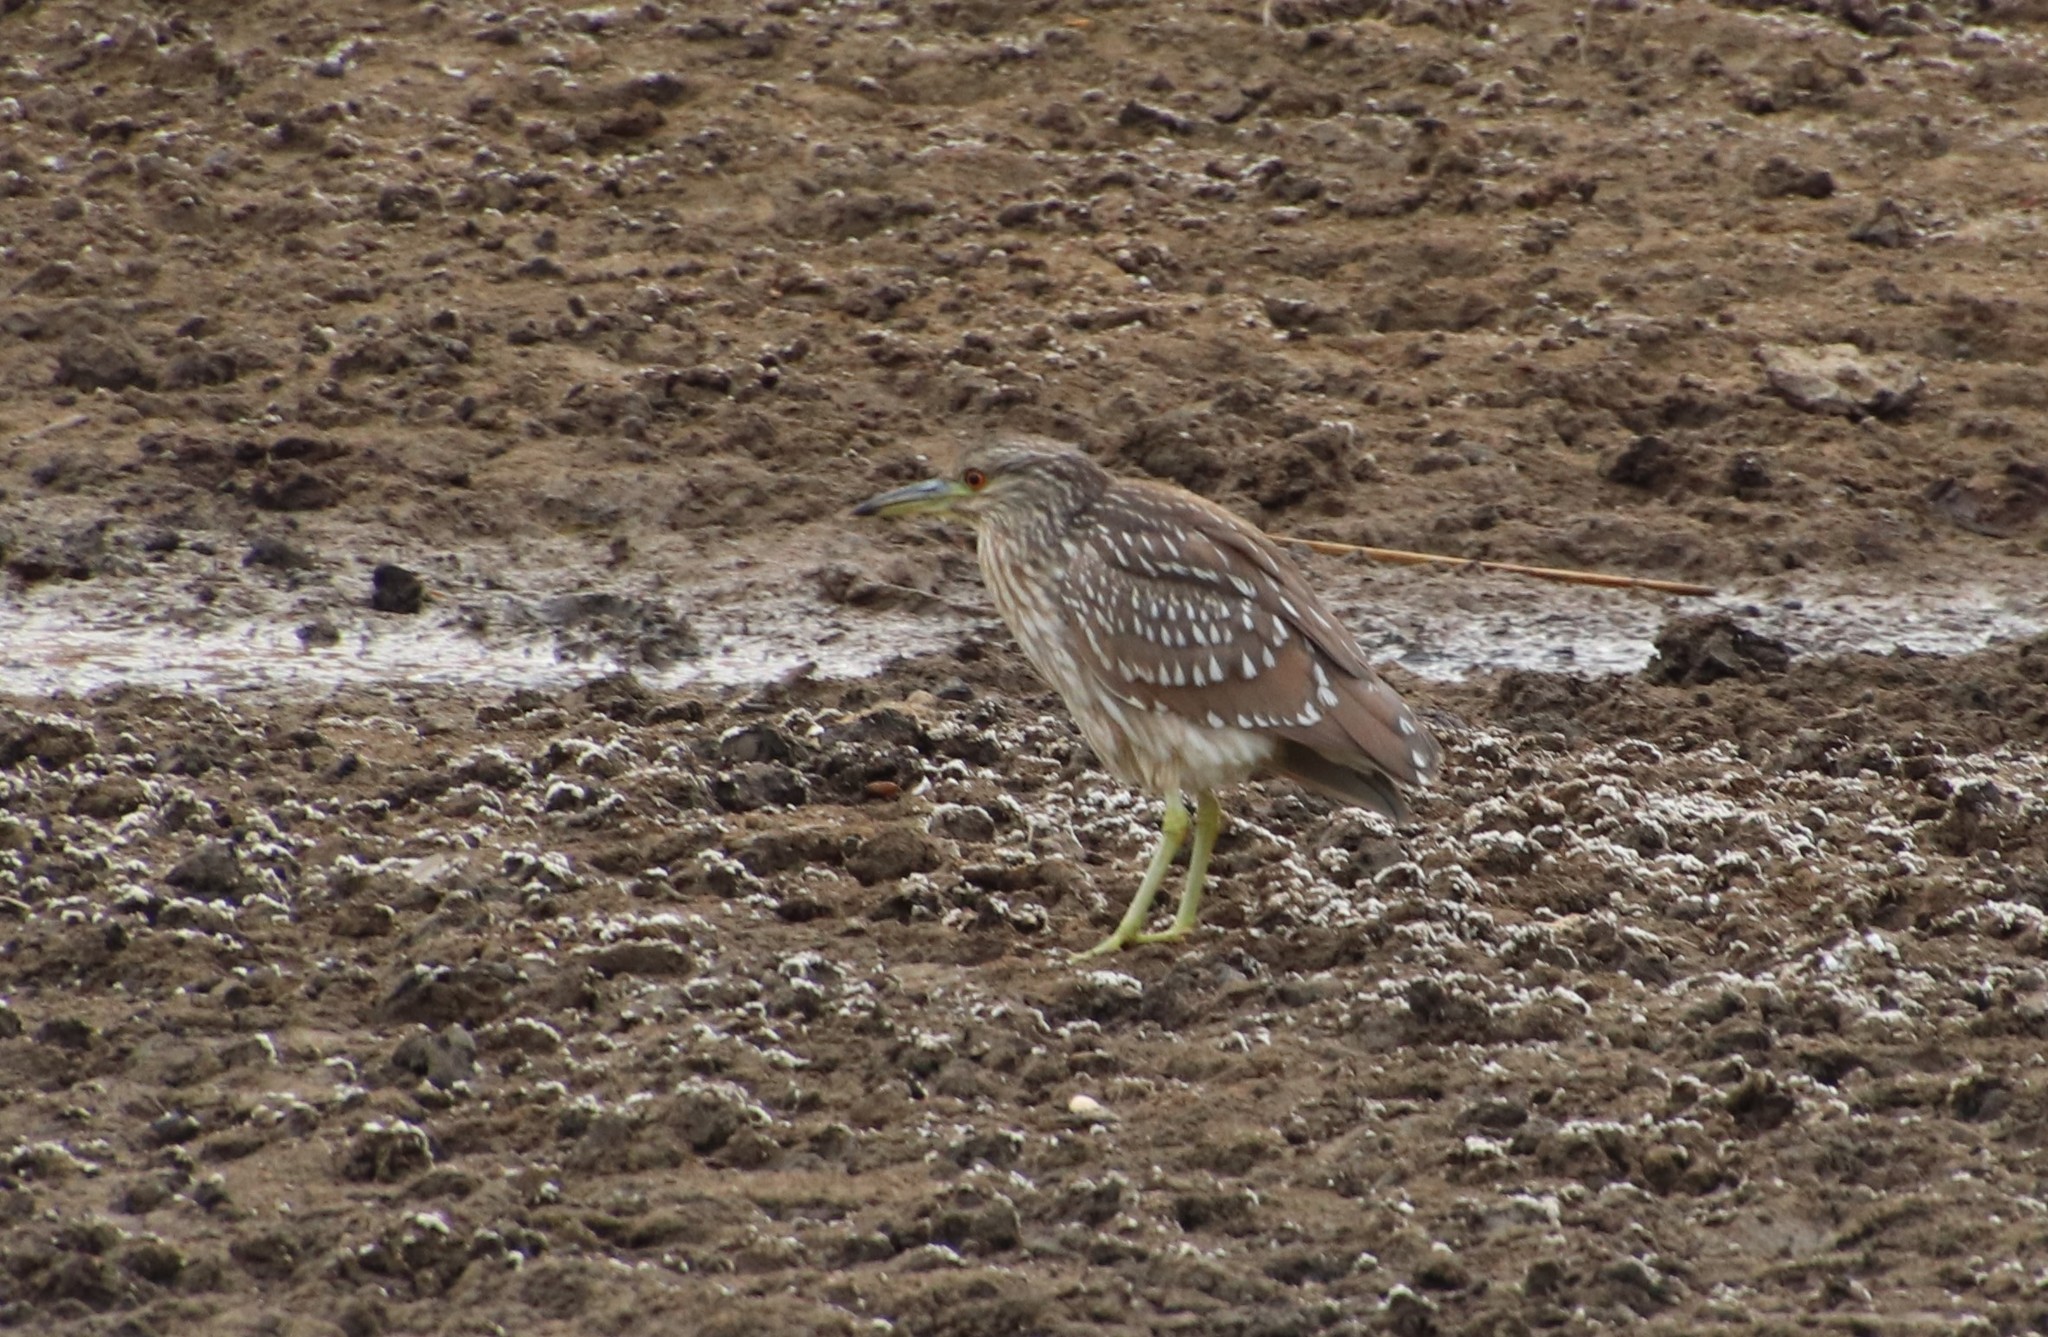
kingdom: Animalia
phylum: Chordata
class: Aves
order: Pelecaniformes
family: Ardeidae
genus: Nycticorax
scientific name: Nycticorax nycticorax
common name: Black-crowned night heron
